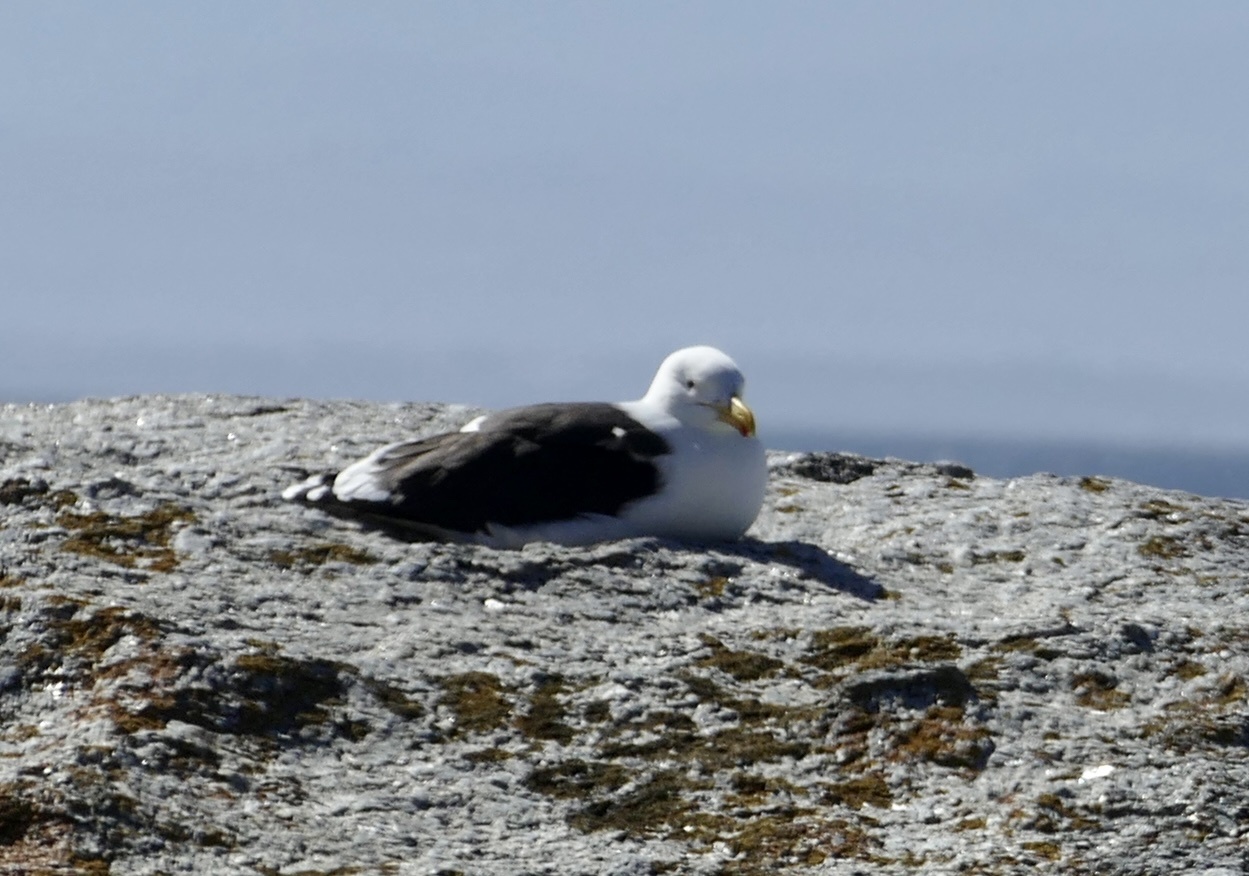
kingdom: Animalia
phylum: Chordata
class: Aves
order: Charadriiformes
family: Laridae
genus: Larus
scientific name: Larus dominicanus
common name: Kelp gull
